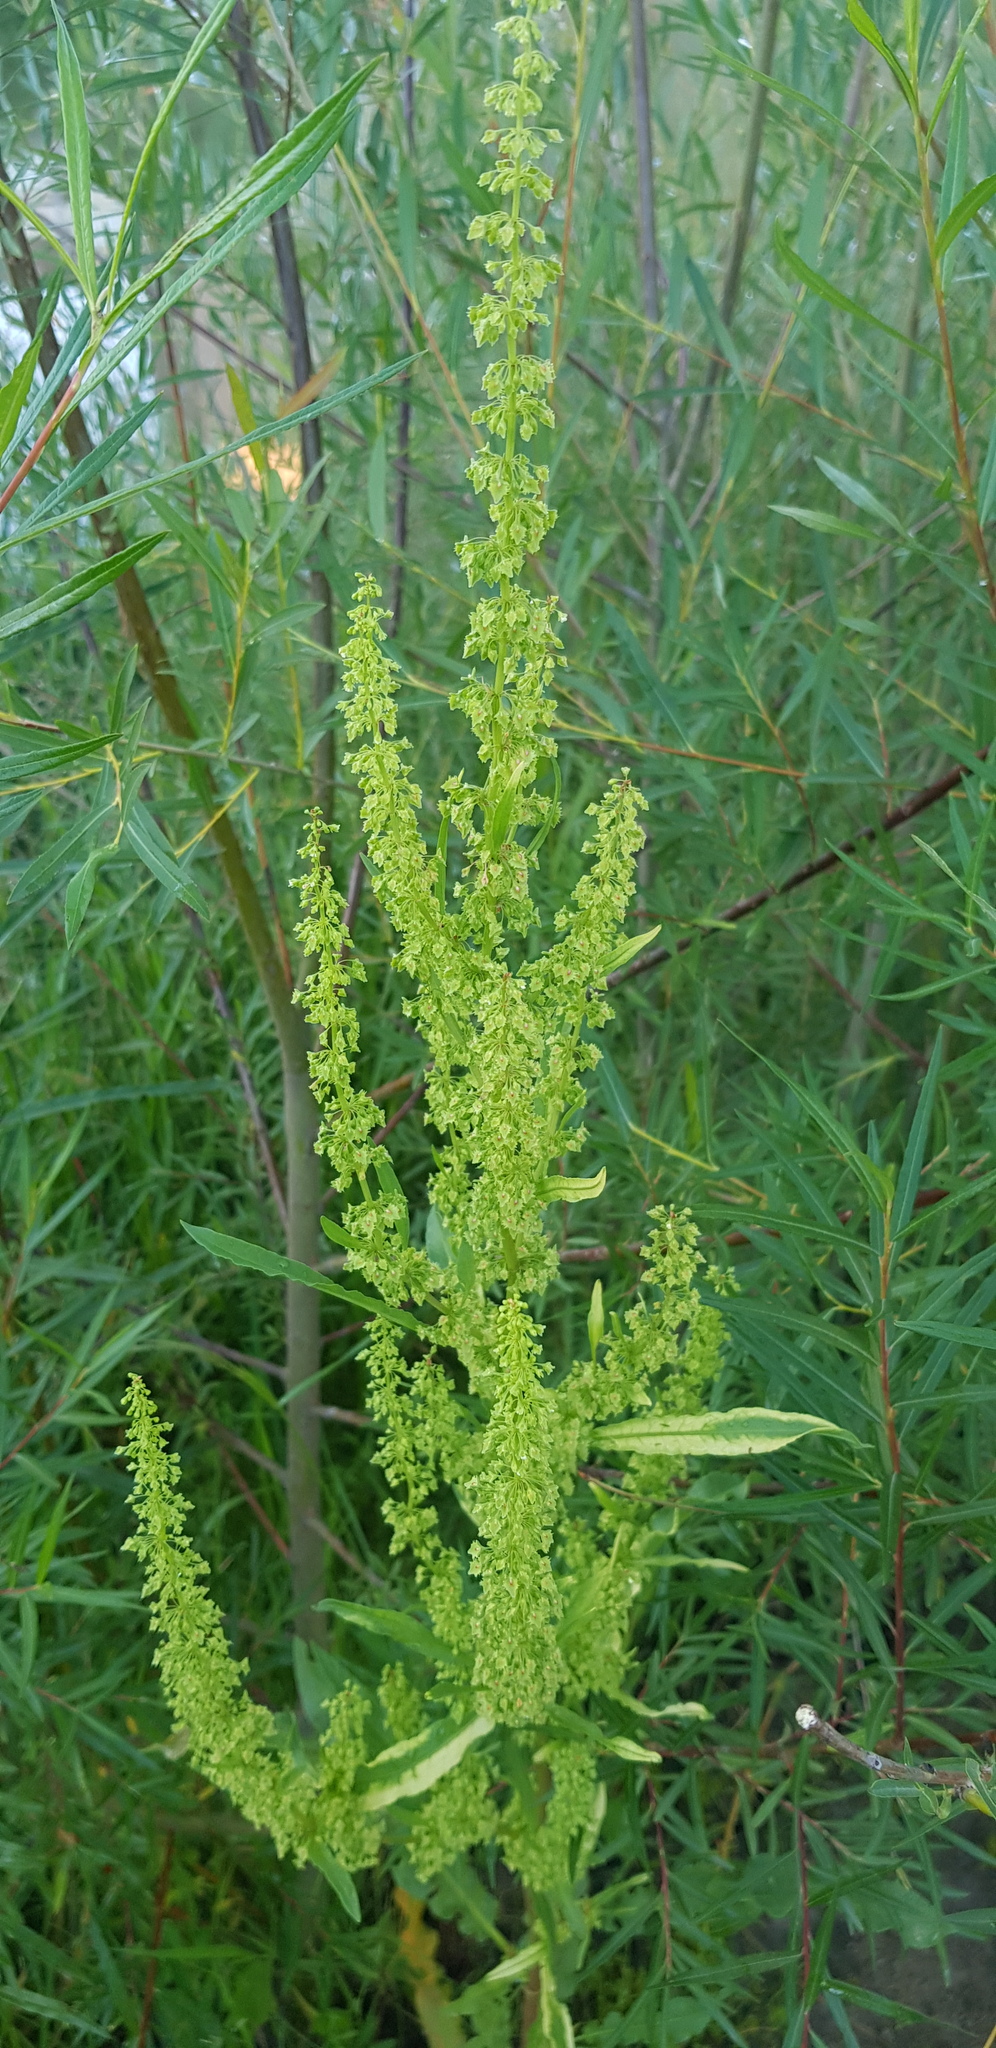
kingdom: Plantae
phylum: Tracheophyta
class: Magnoliopsida
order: Caryophyllales
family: Polygonaceae
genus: Rumex
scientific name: Rumex thyrsiflorus
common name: Garden sorrel
